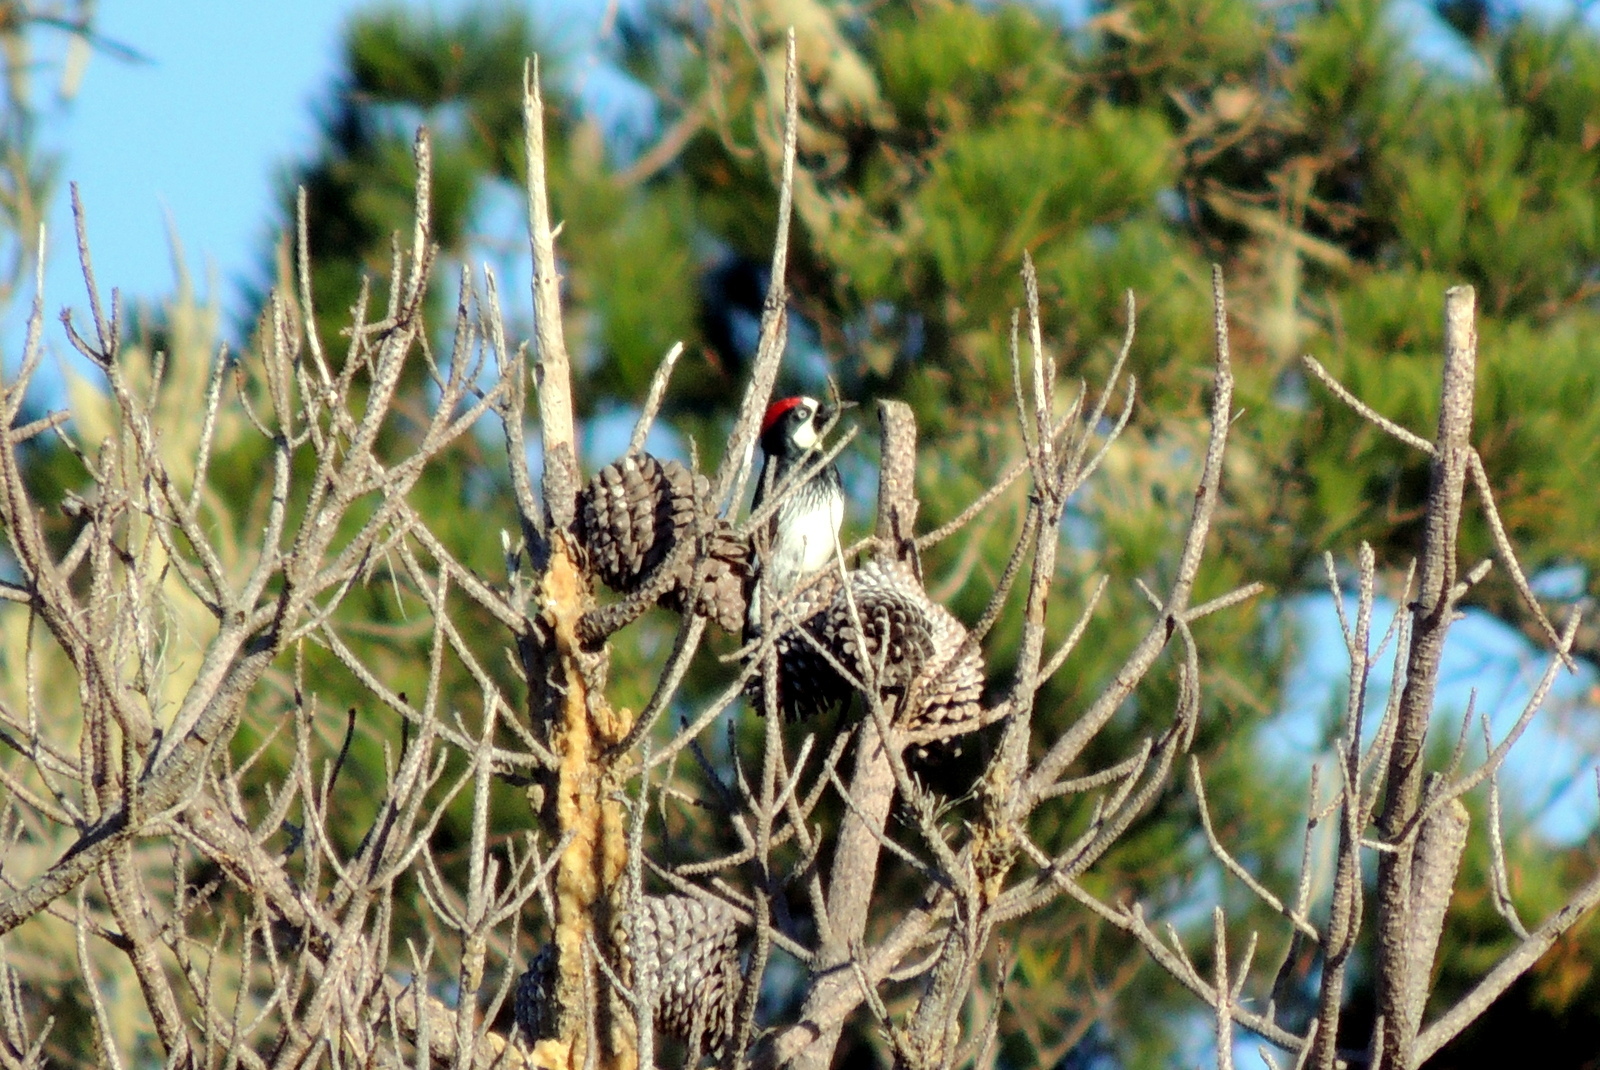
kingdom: Animalia
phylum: Chordata
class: Aves
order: Piciformes
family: Picidae
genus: Melanerpes
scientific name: Melanerpes formicivorus
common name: Acorn woodpecker
